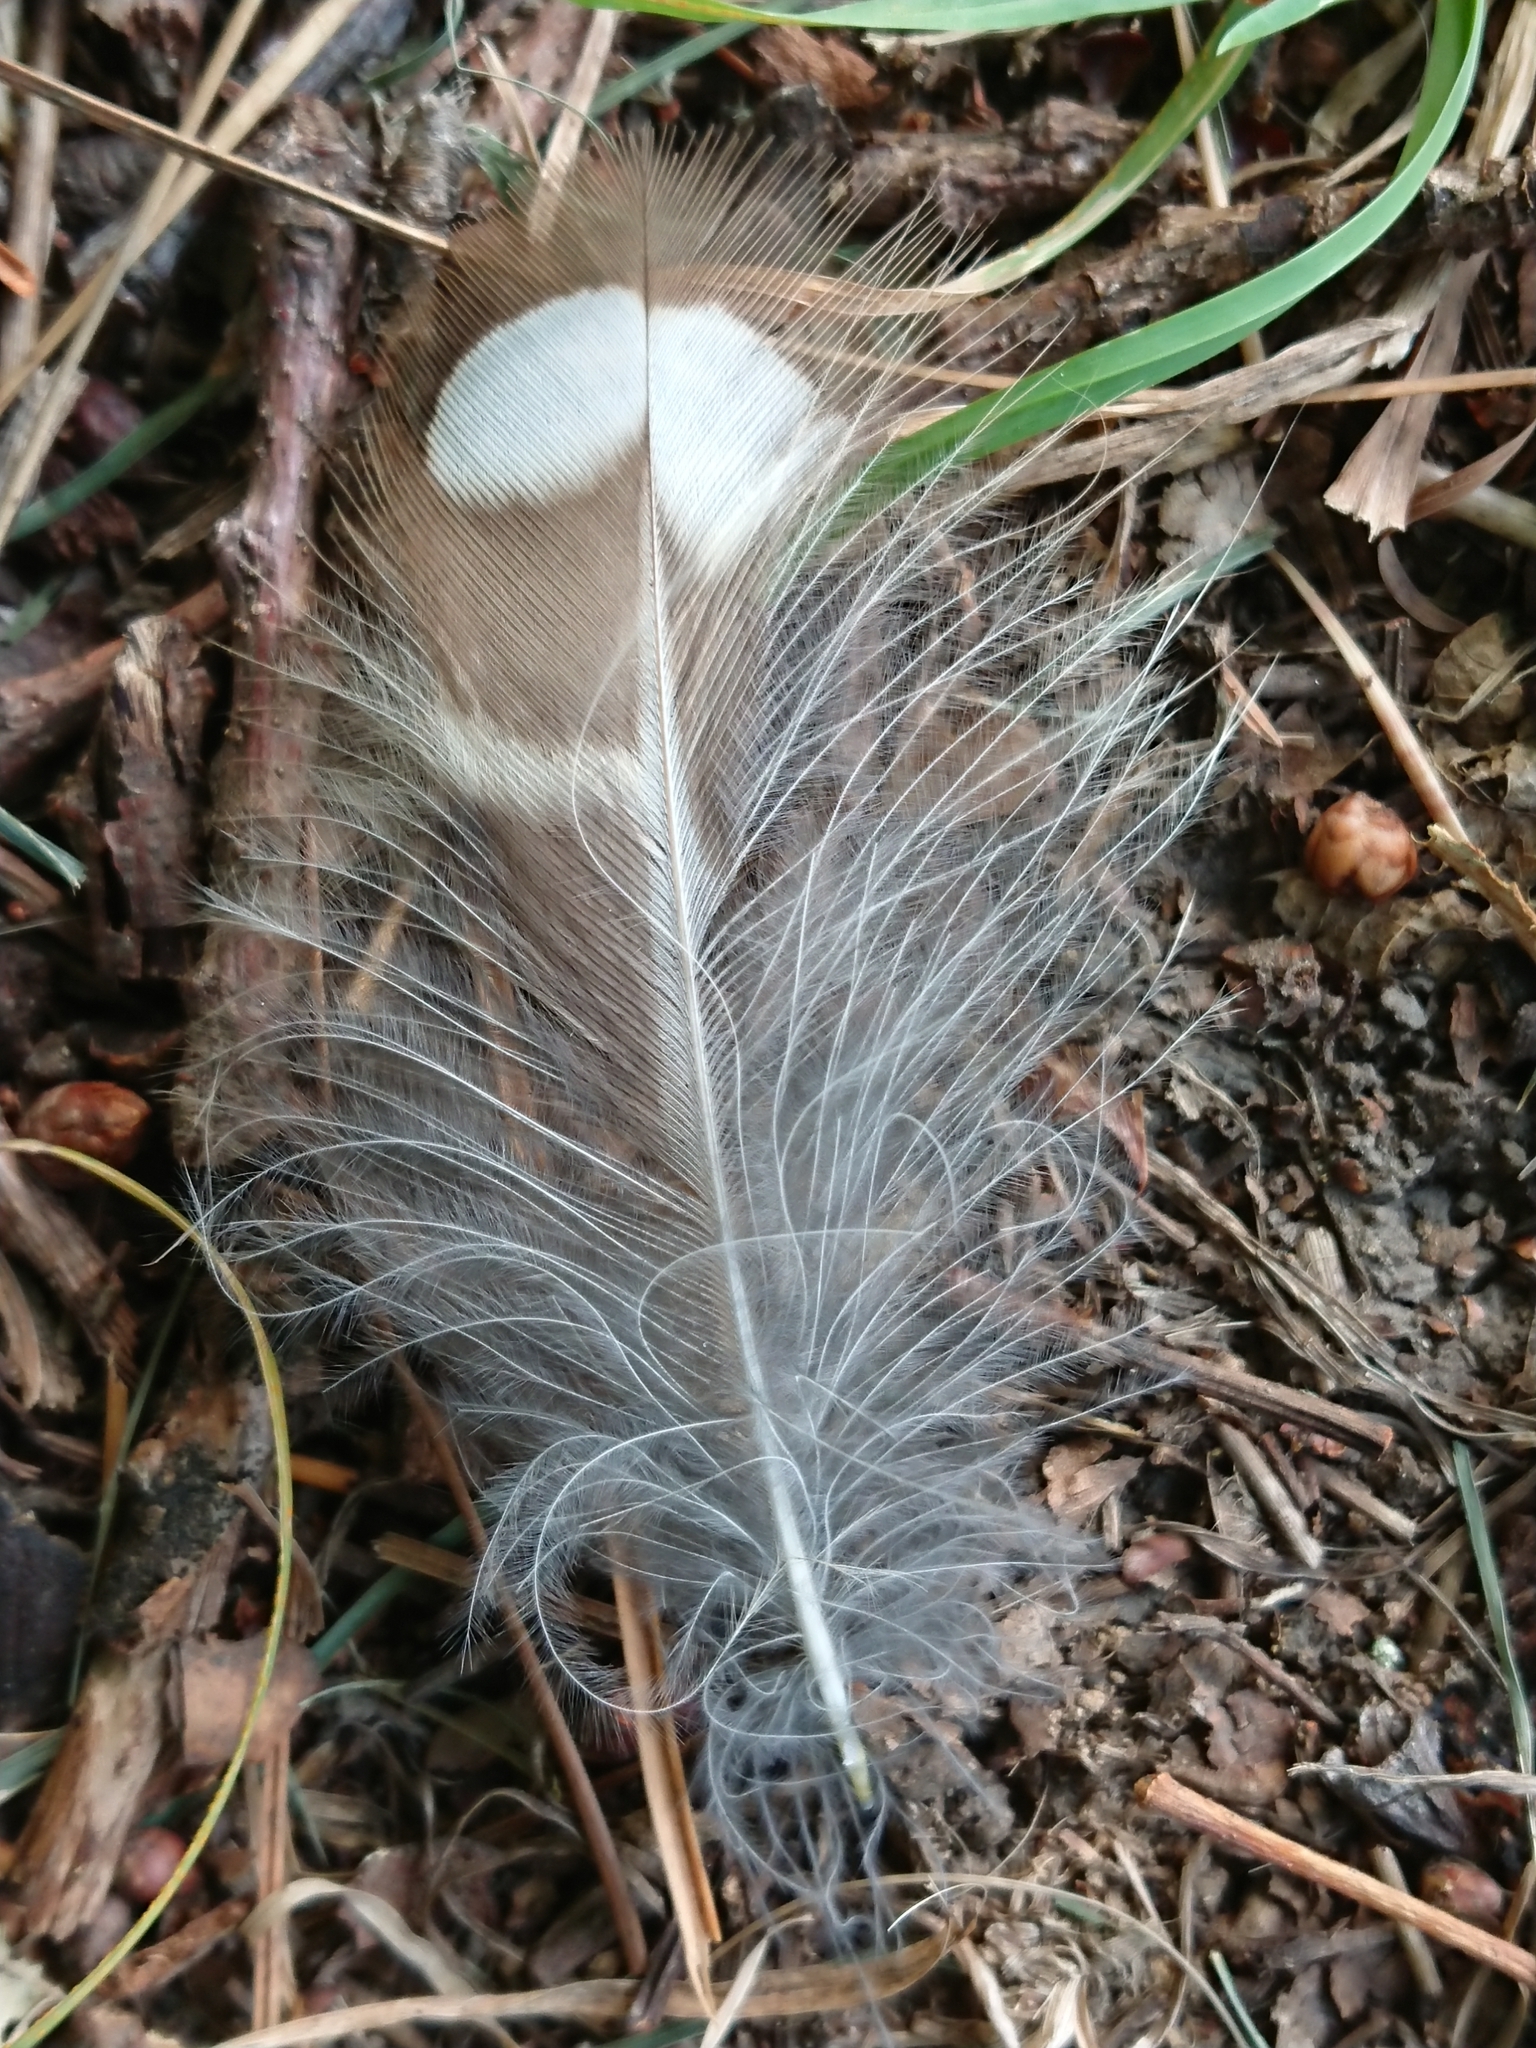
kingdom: Animalia
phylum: Chordata
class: Aves
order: Strigiformes
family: Strigidae
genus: Athene
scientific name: Athene noctua
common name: Little owl
